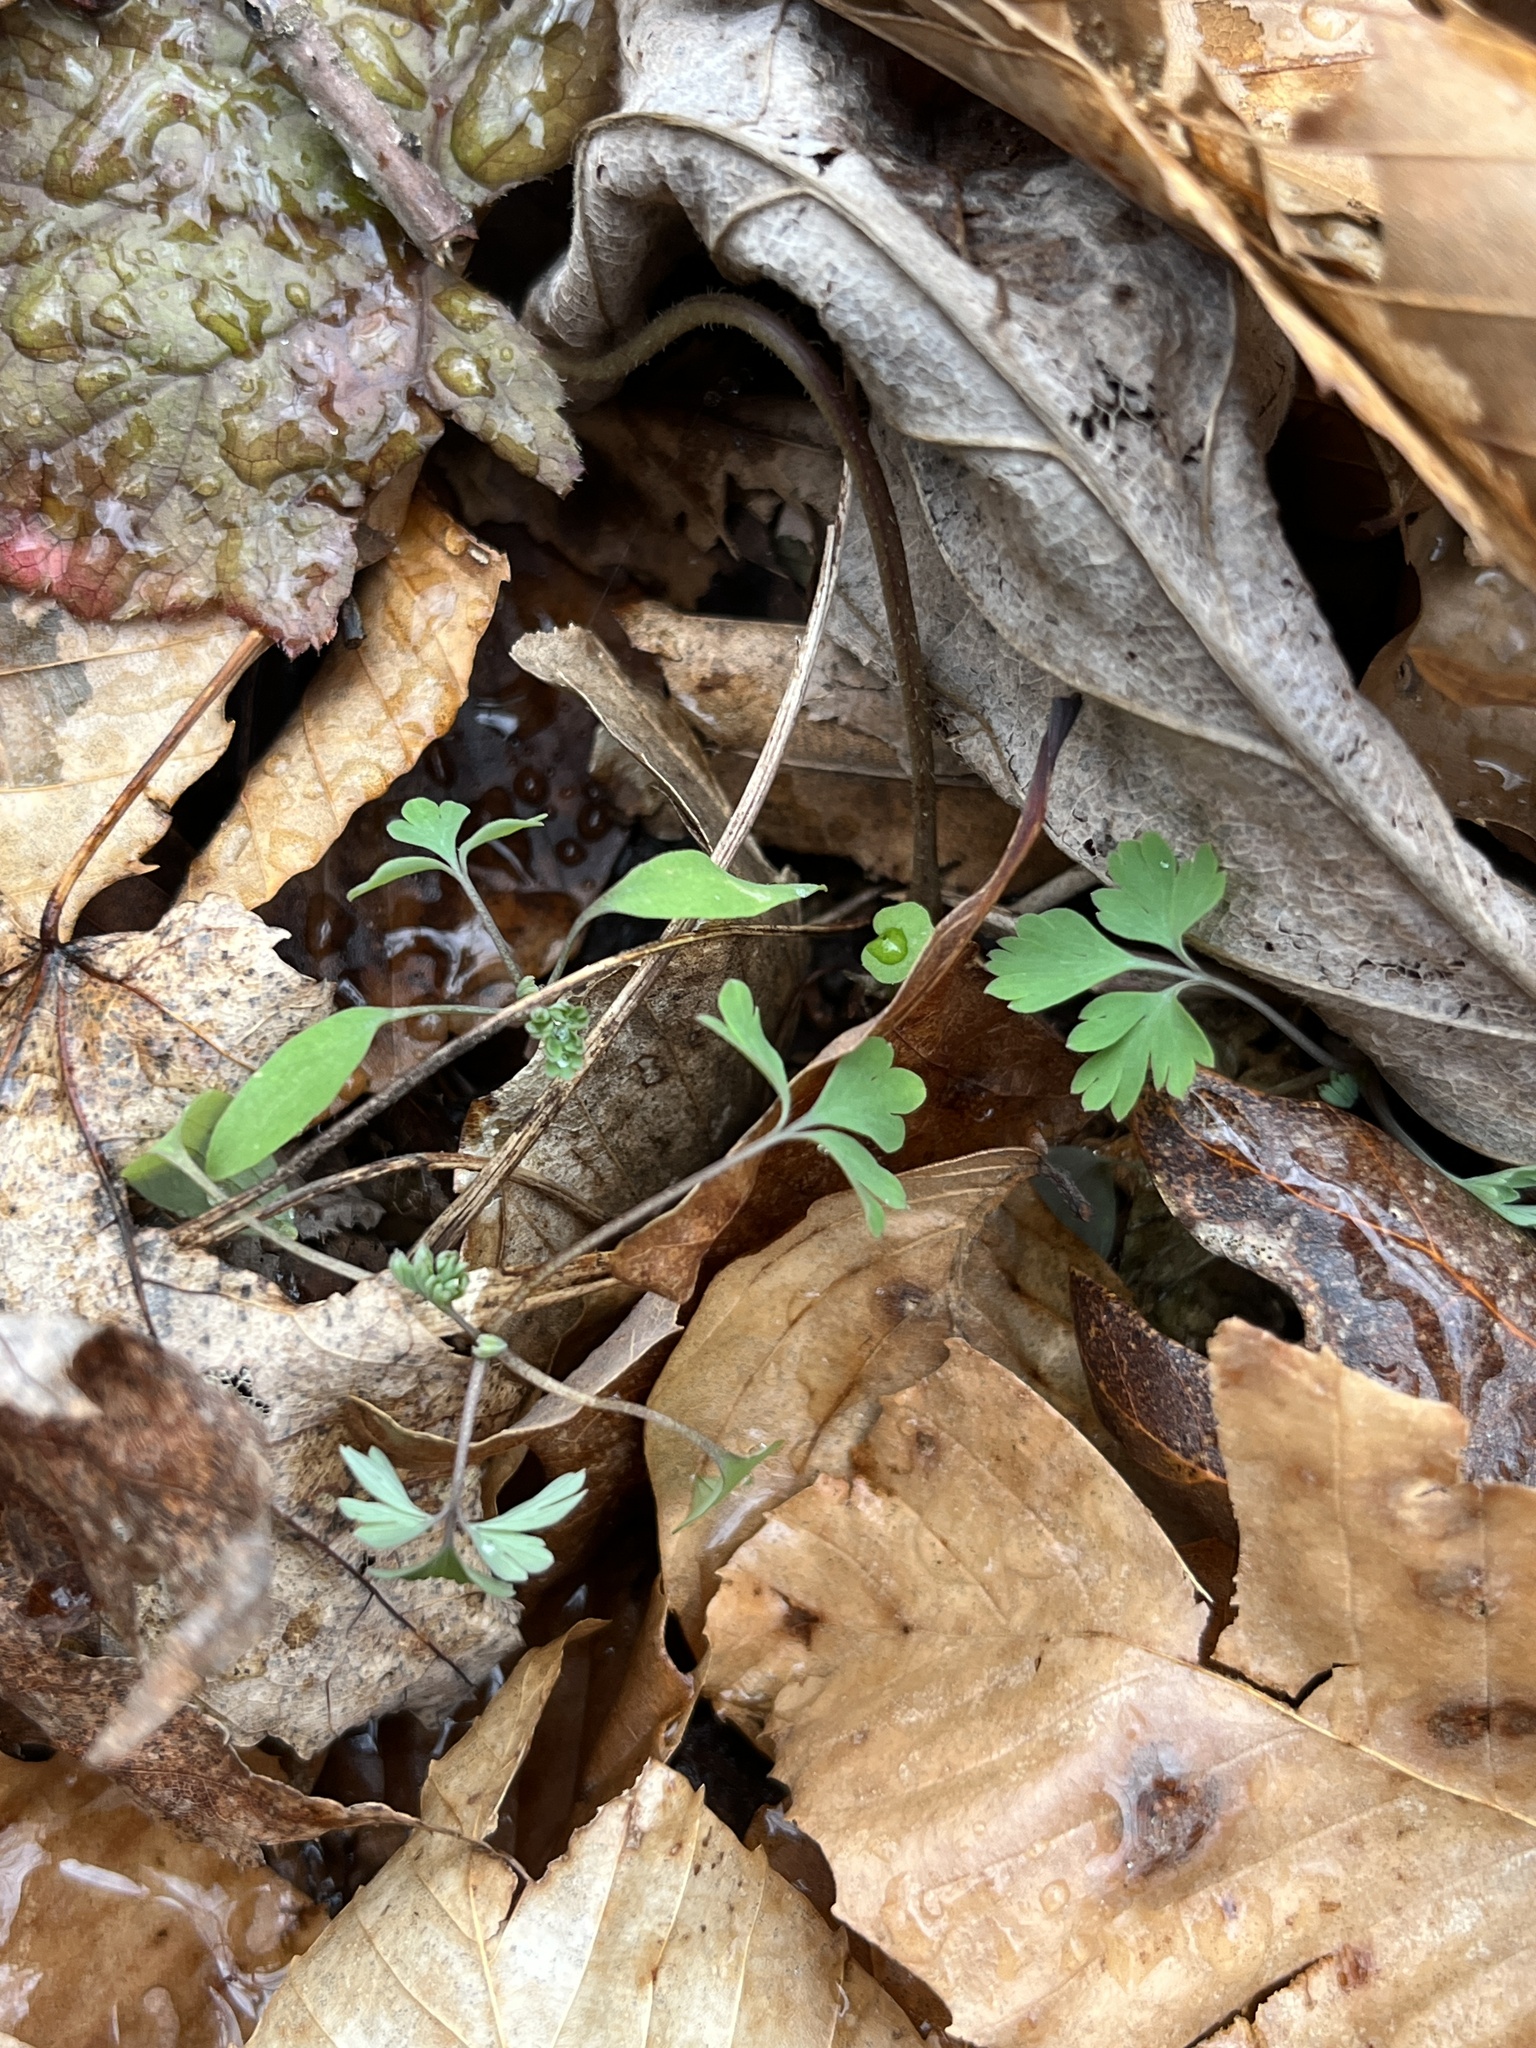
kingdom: Plantae
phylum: Tracheophyta
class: Magnoliopsida
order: Ranunculales
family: Papaveraceae
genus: Corydalis
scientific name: Corydalis flavula
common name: Yellow corydalis
